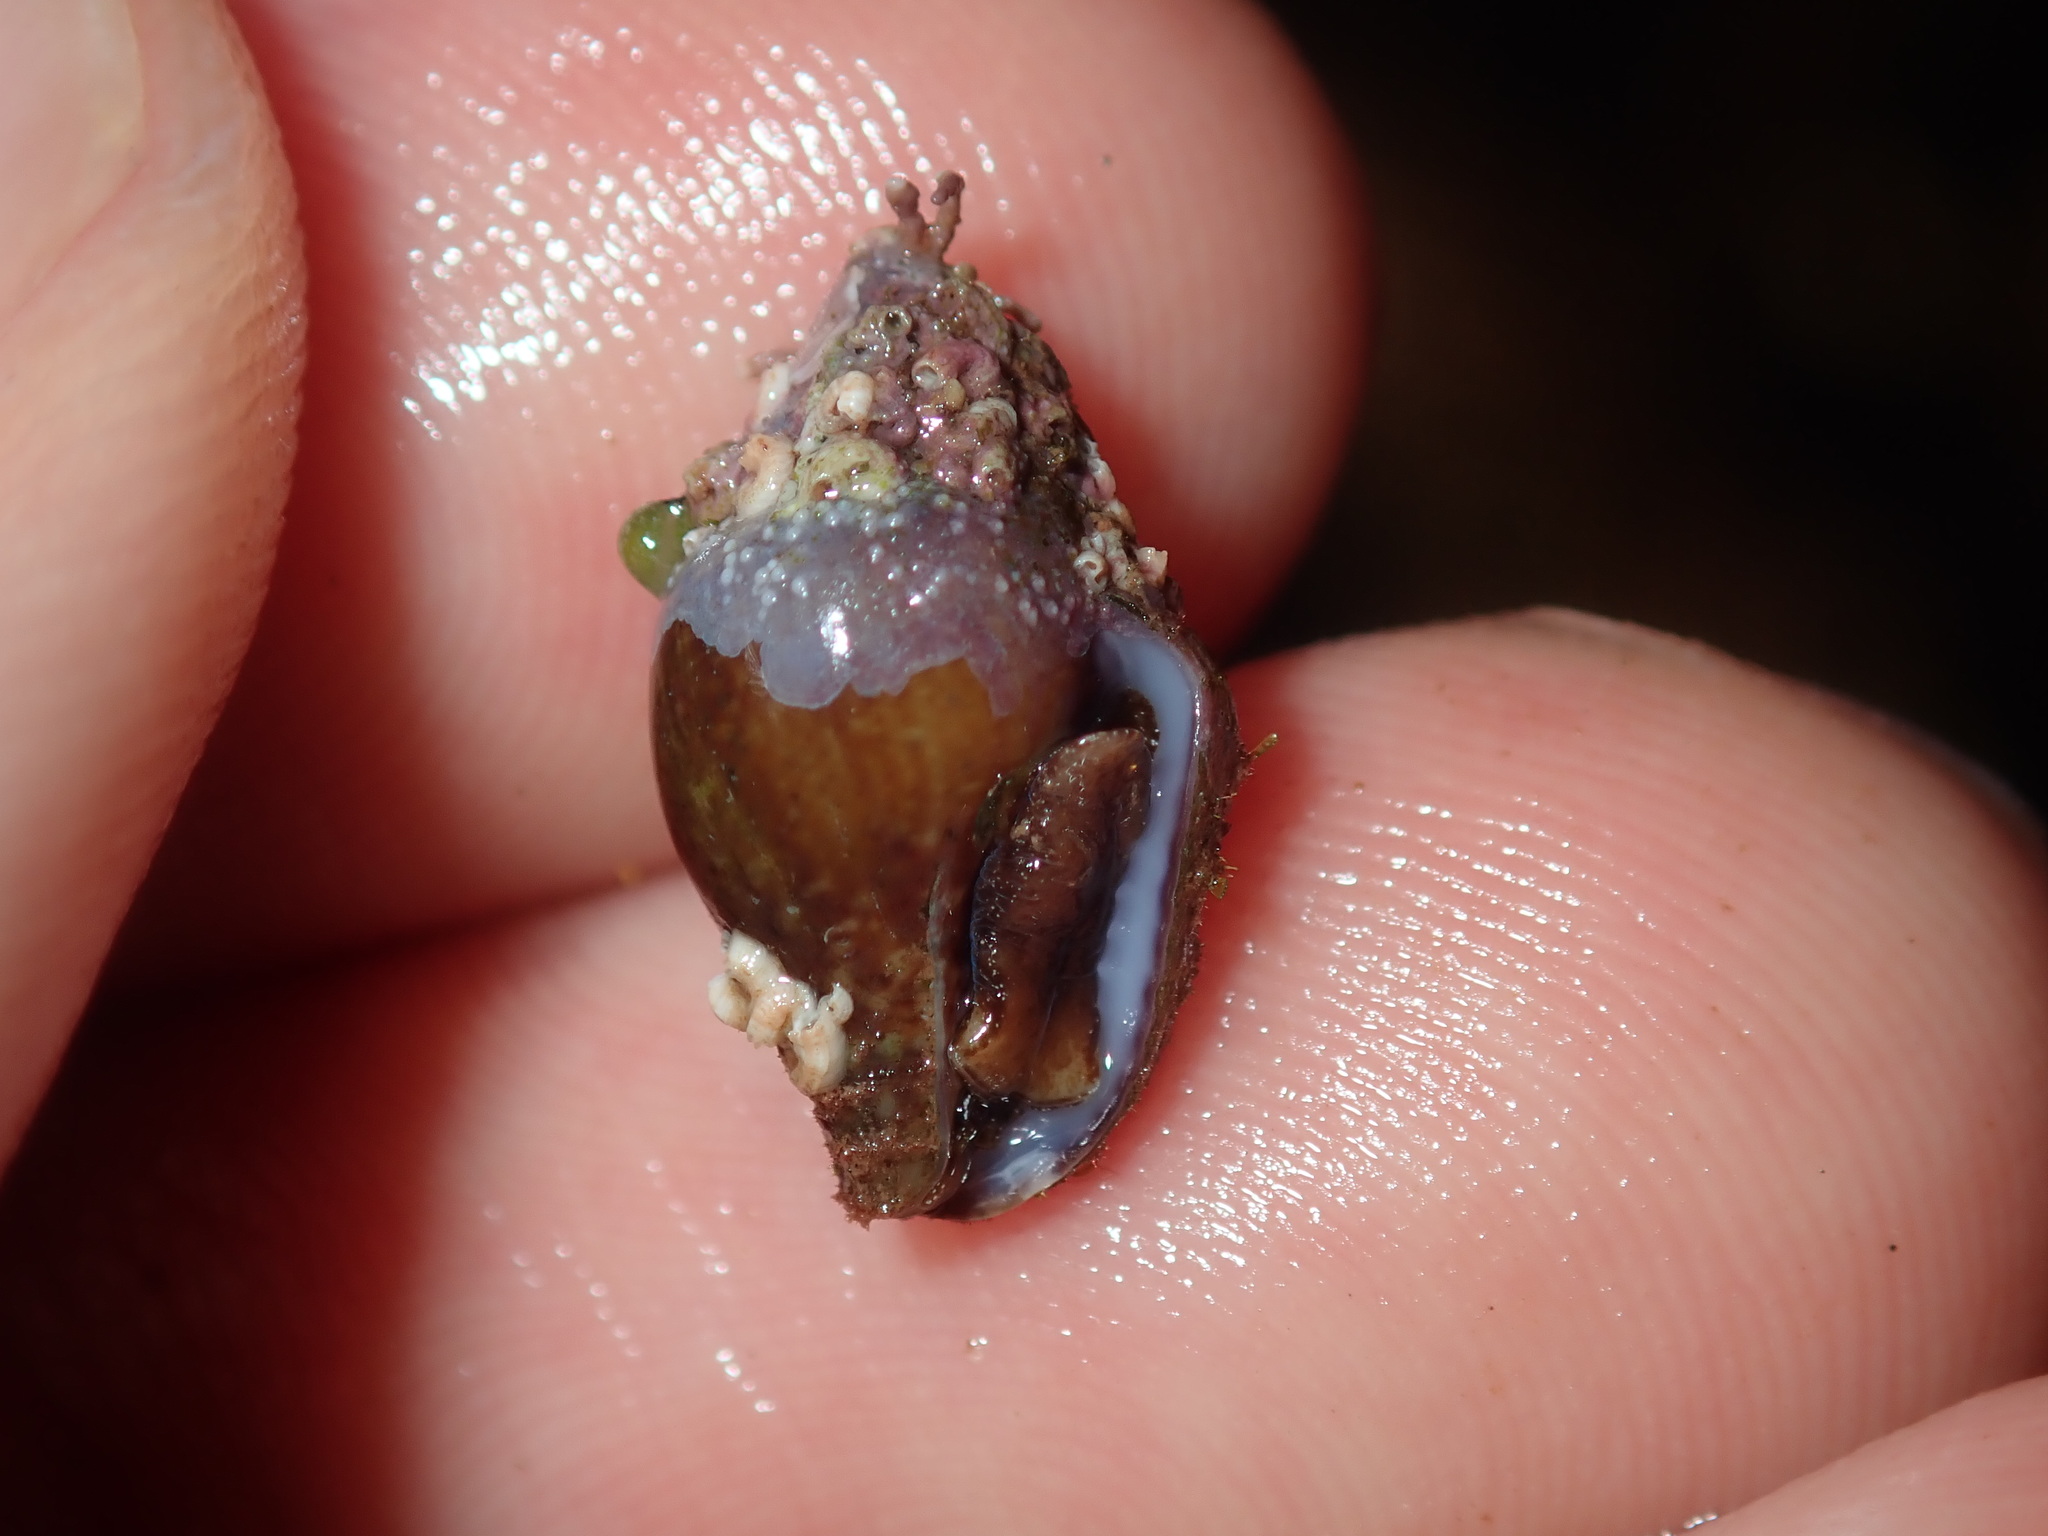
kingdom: Animalia
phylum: Mollusca
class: Gastropoda
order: Neogastropoda
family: Columbellidae
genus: Euplica
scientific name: Euplica scripta
